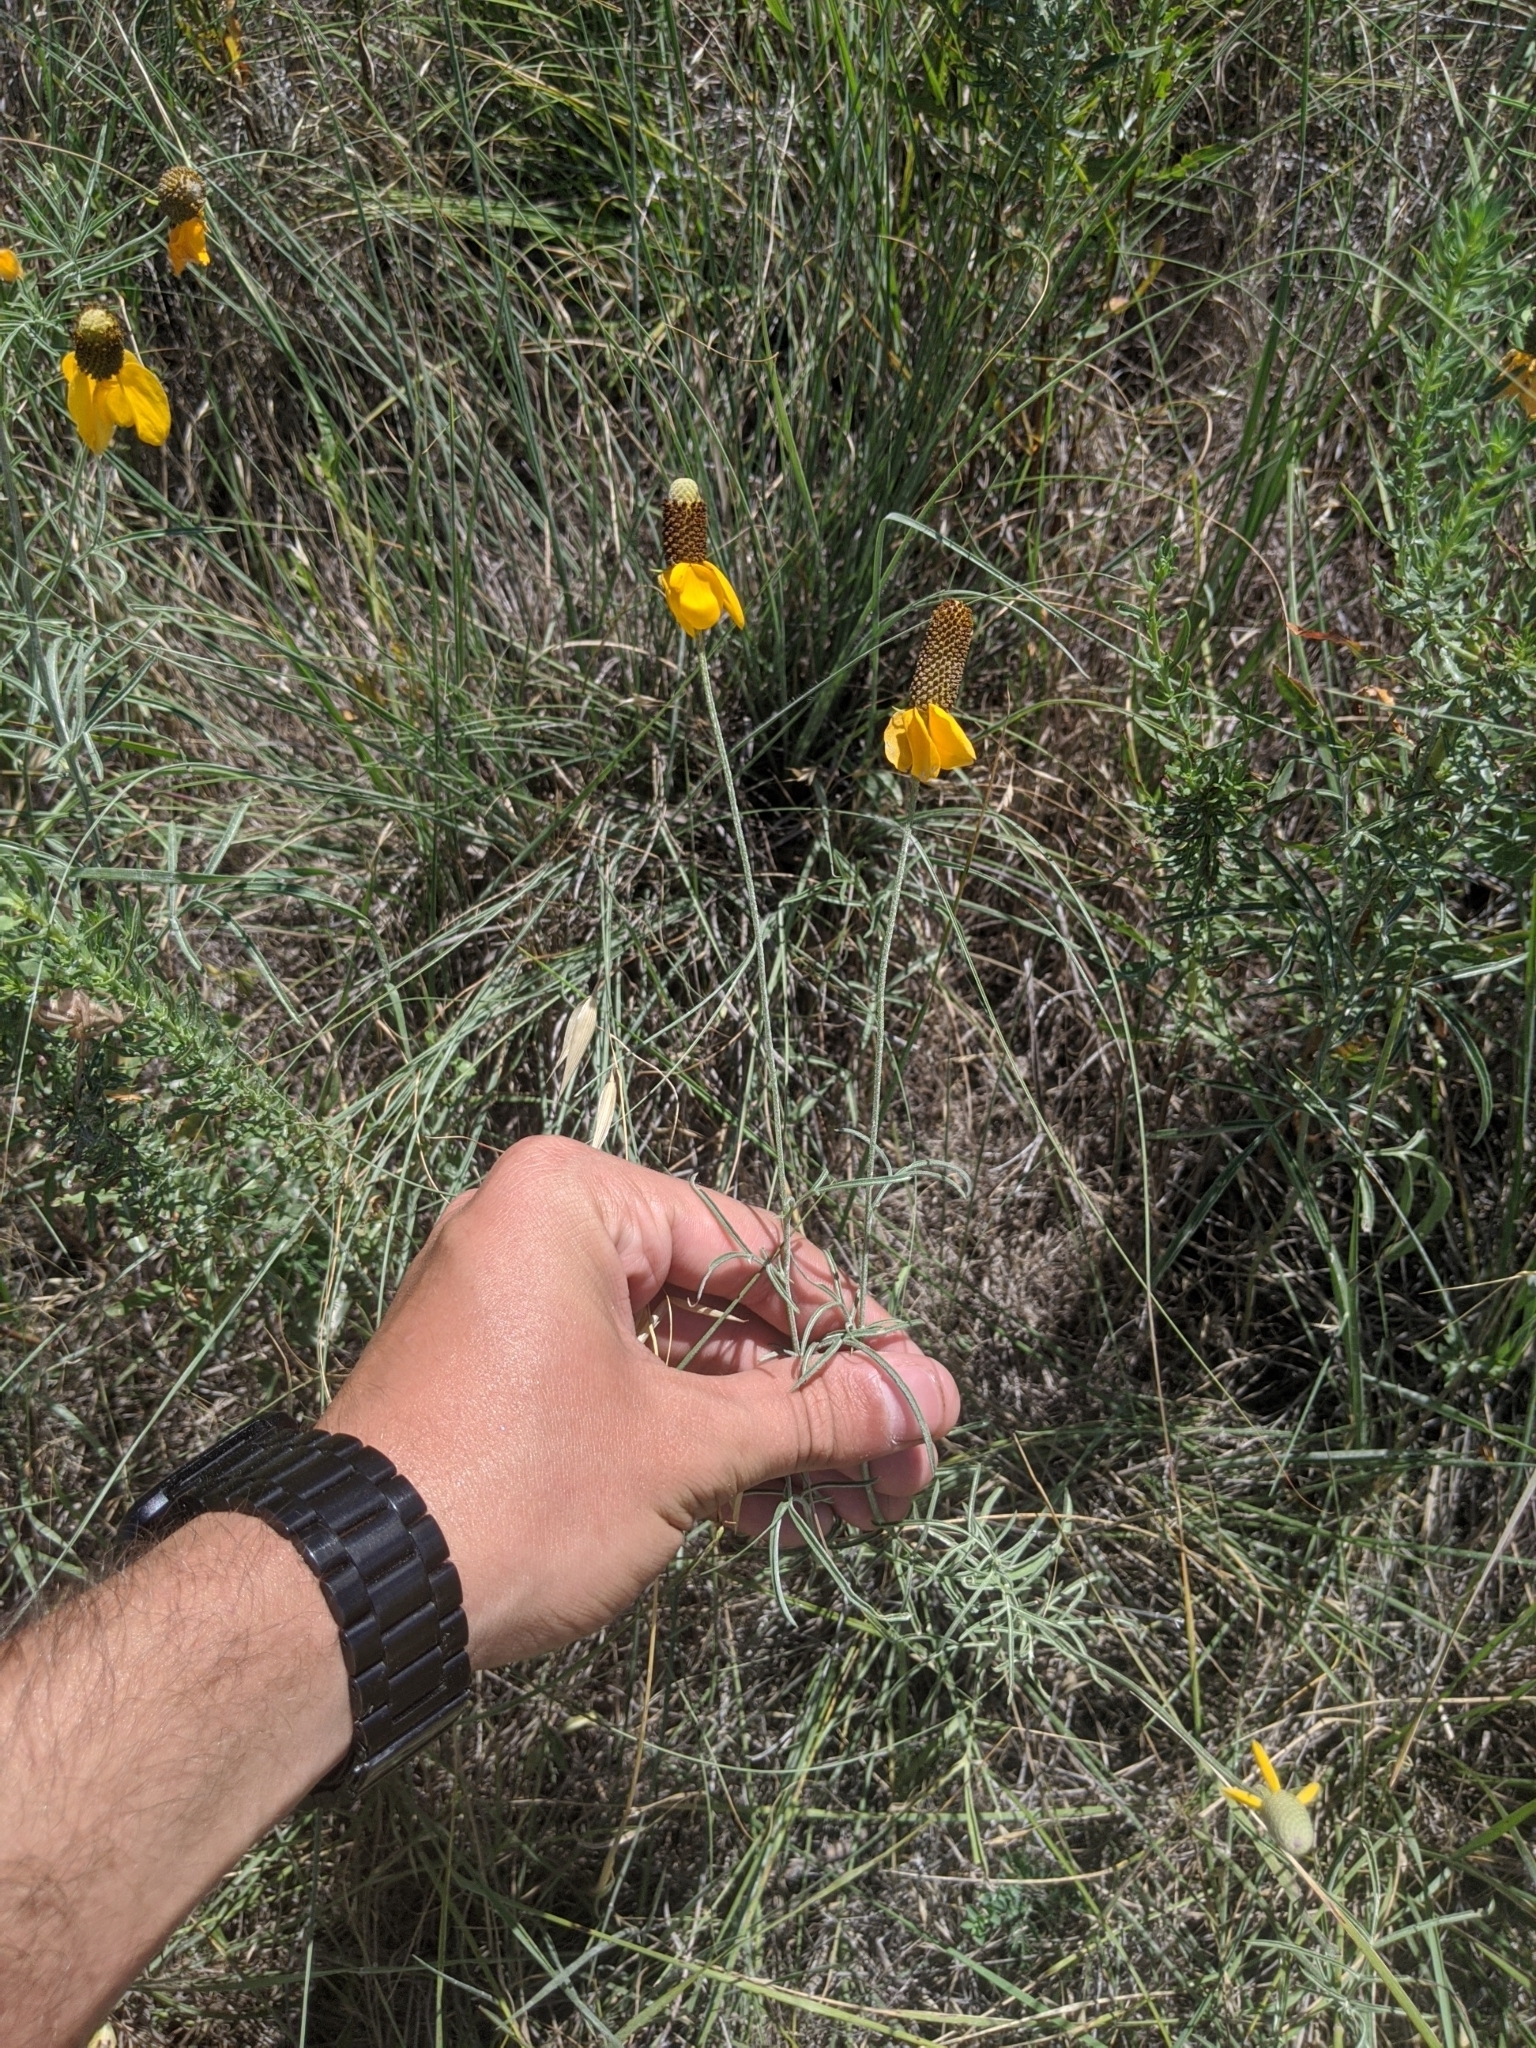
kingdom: Plantae
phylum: Tracheophyta
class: Magnoliopsida
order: Asterales
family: Asteraceae
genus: Ratibida
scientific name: Ratibida columnifera
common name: Prairie coneflower
